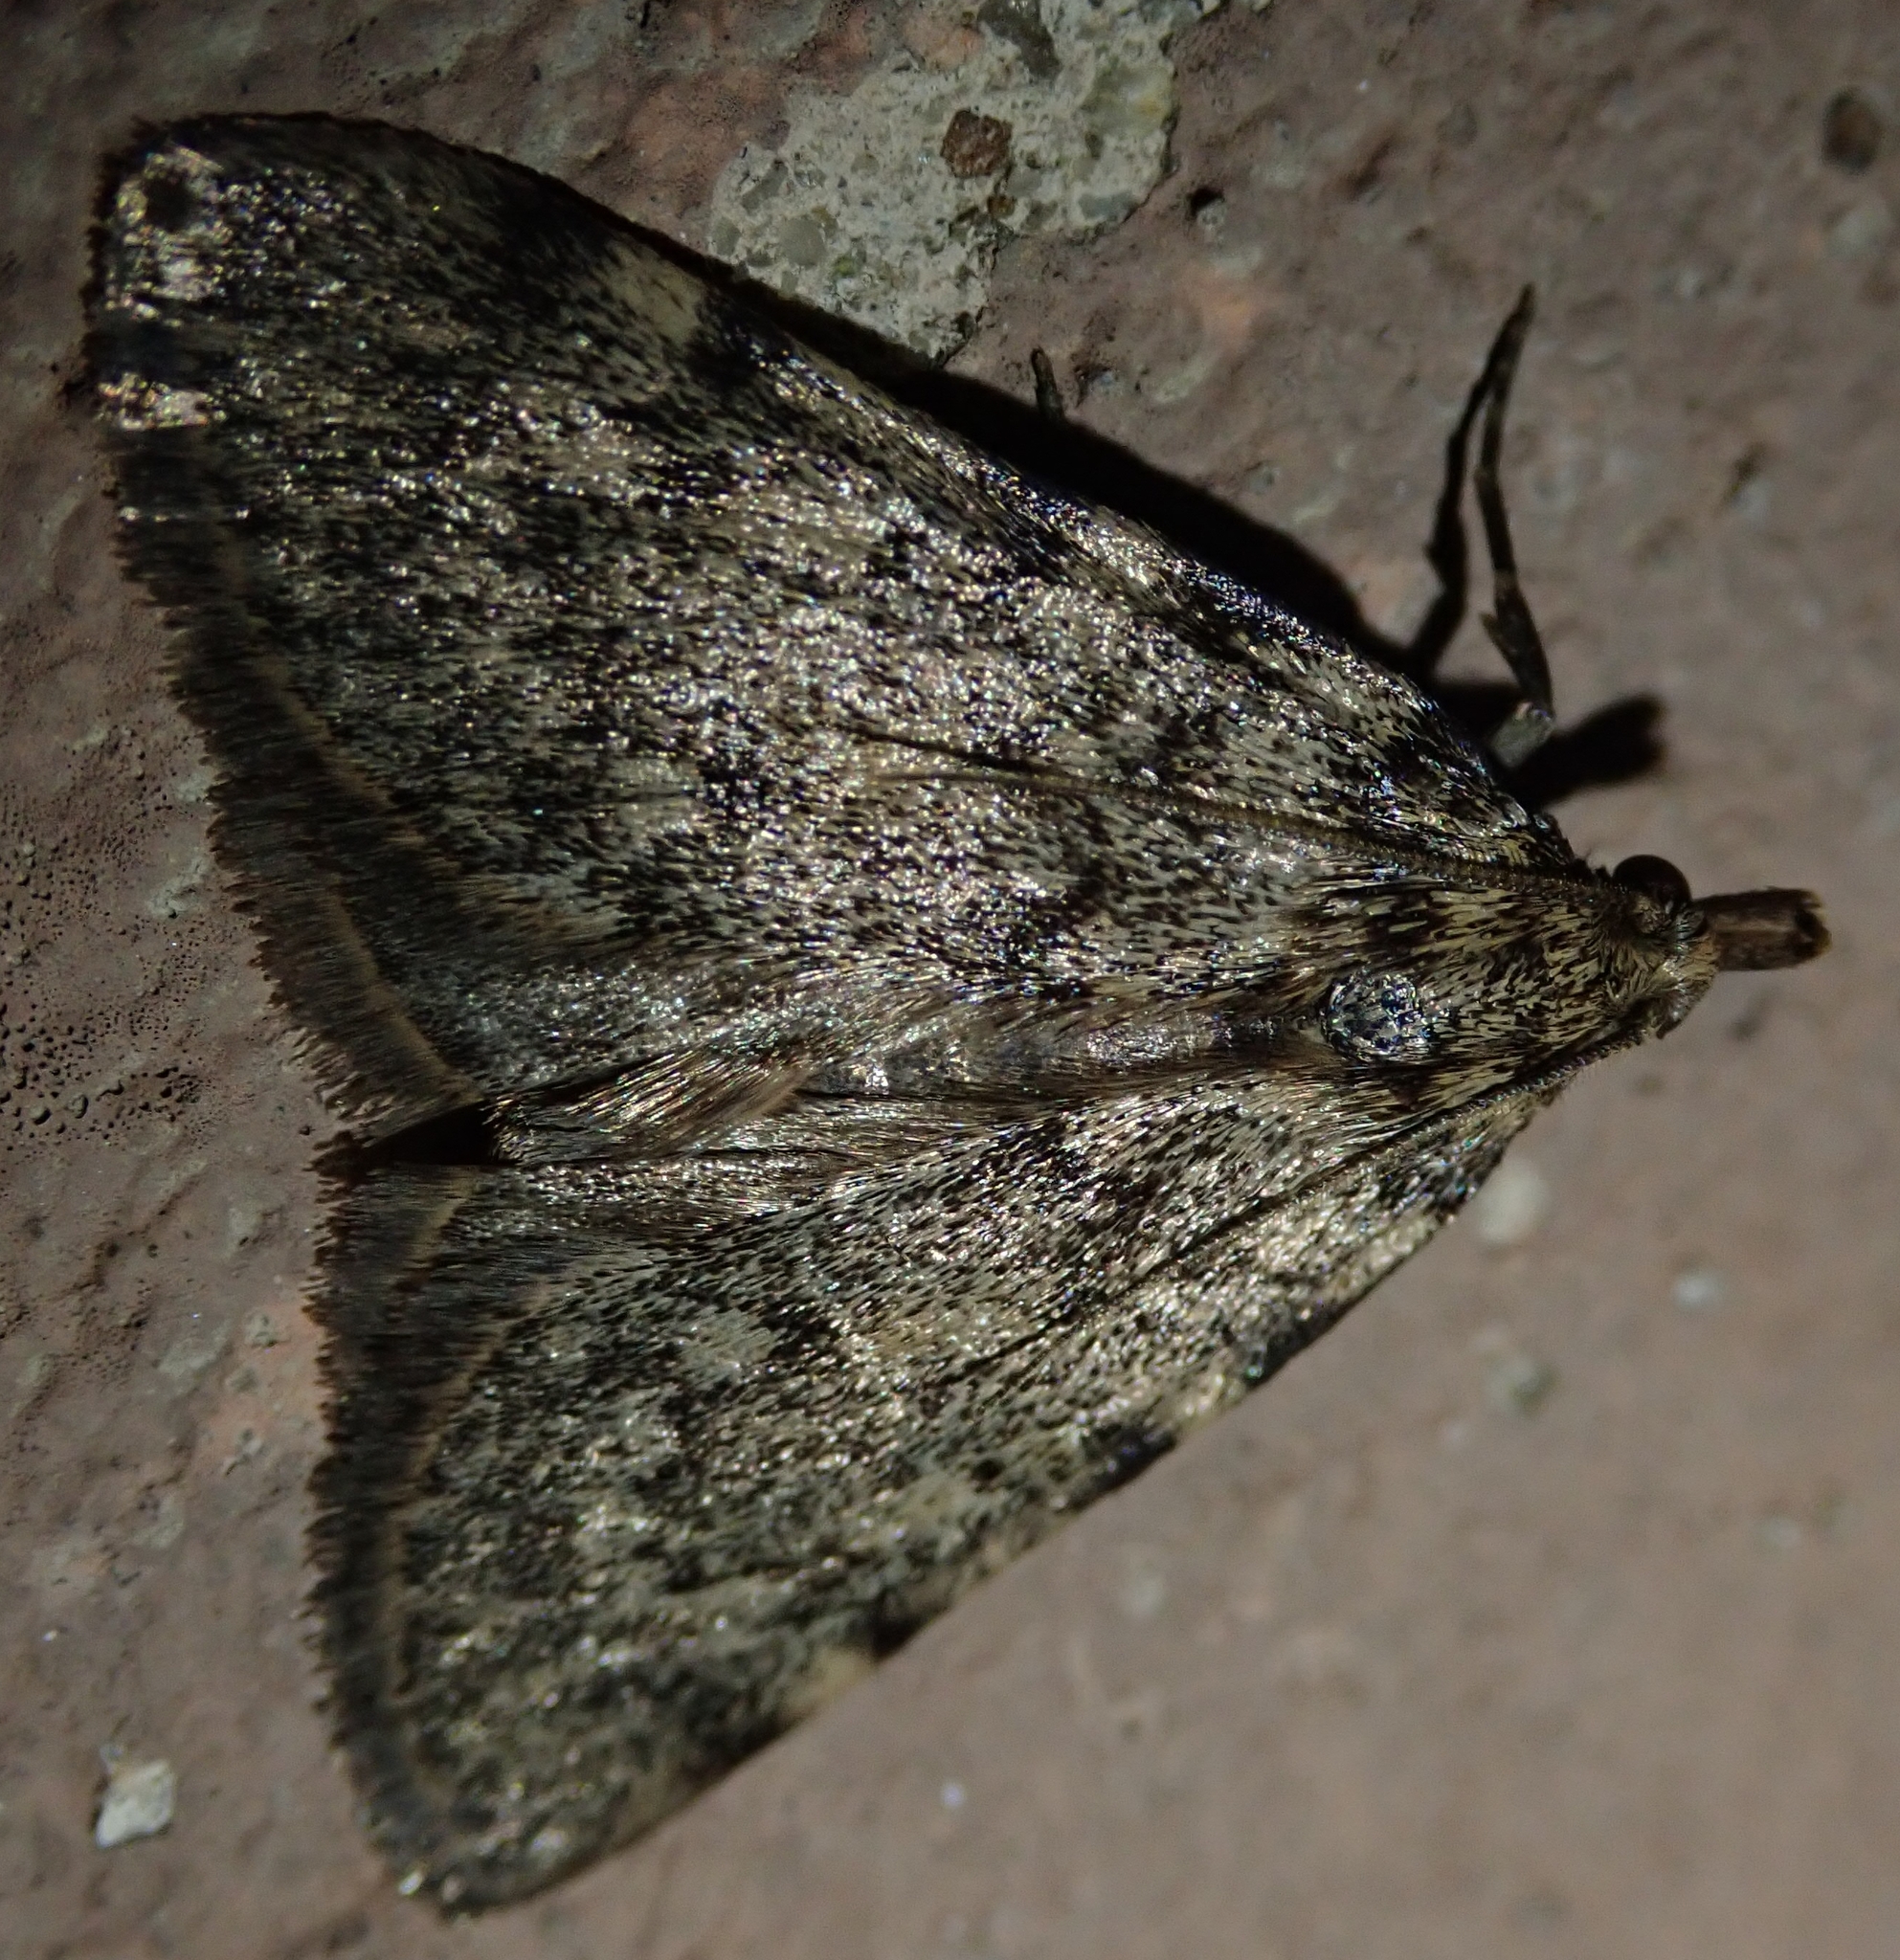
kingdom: Animalia
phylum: Arthropoda
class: Insecta
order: Lepidoptera
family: Pyralidae
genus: Aglossa
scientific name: Aglossa pinguinalis
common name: Large tabby
